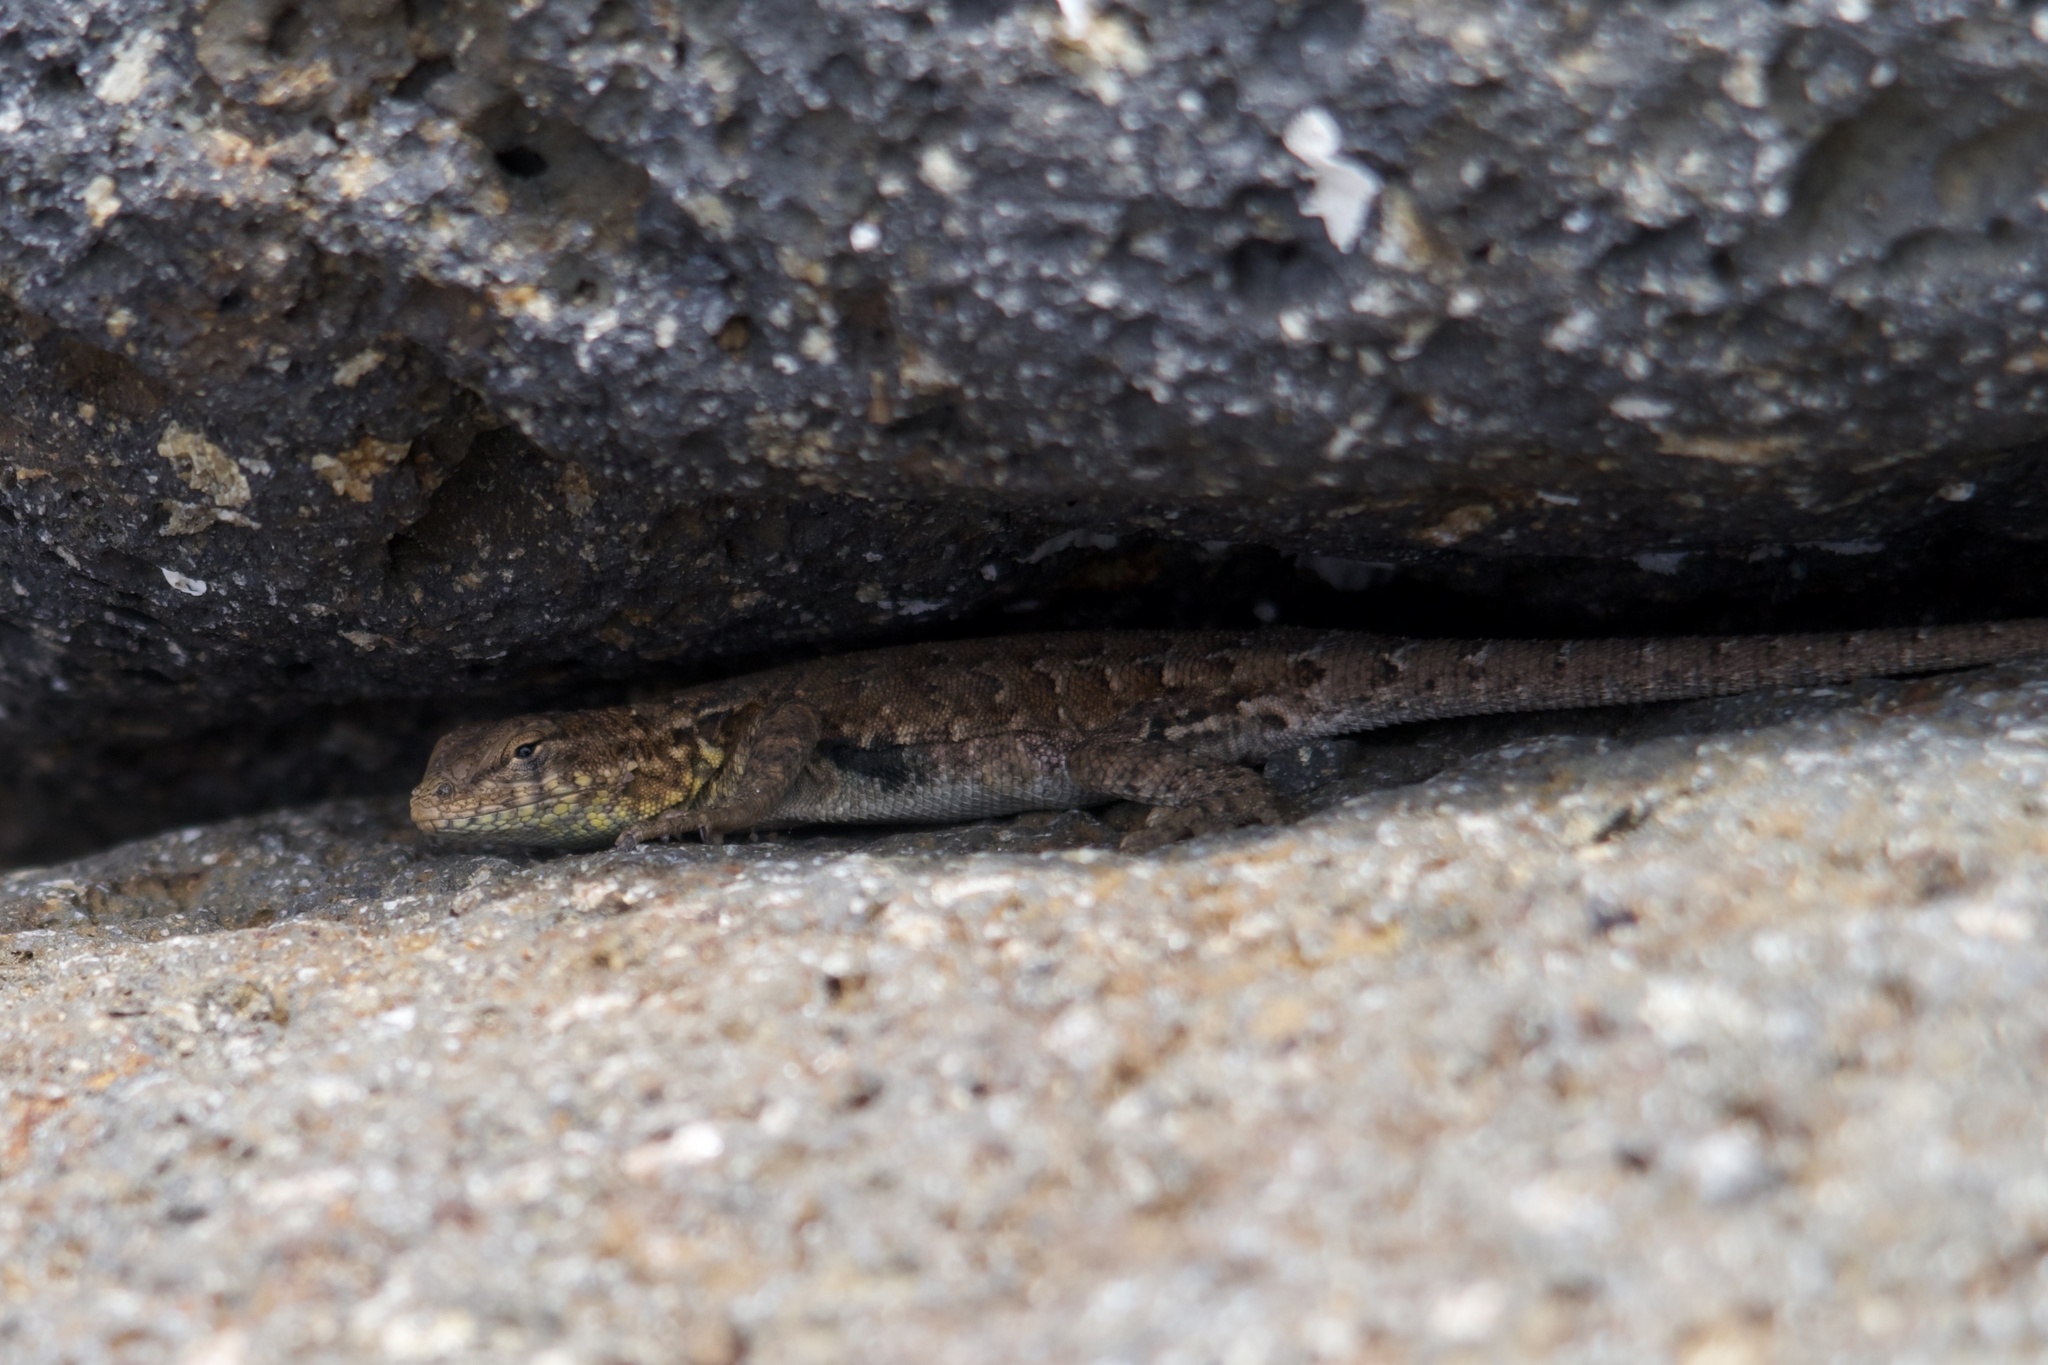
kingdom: Animalia
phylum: Chordata
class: Squamata
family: Phrynosomatidae
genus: Uta
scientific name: Uta stansburiana
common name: Side-blotched lizard
